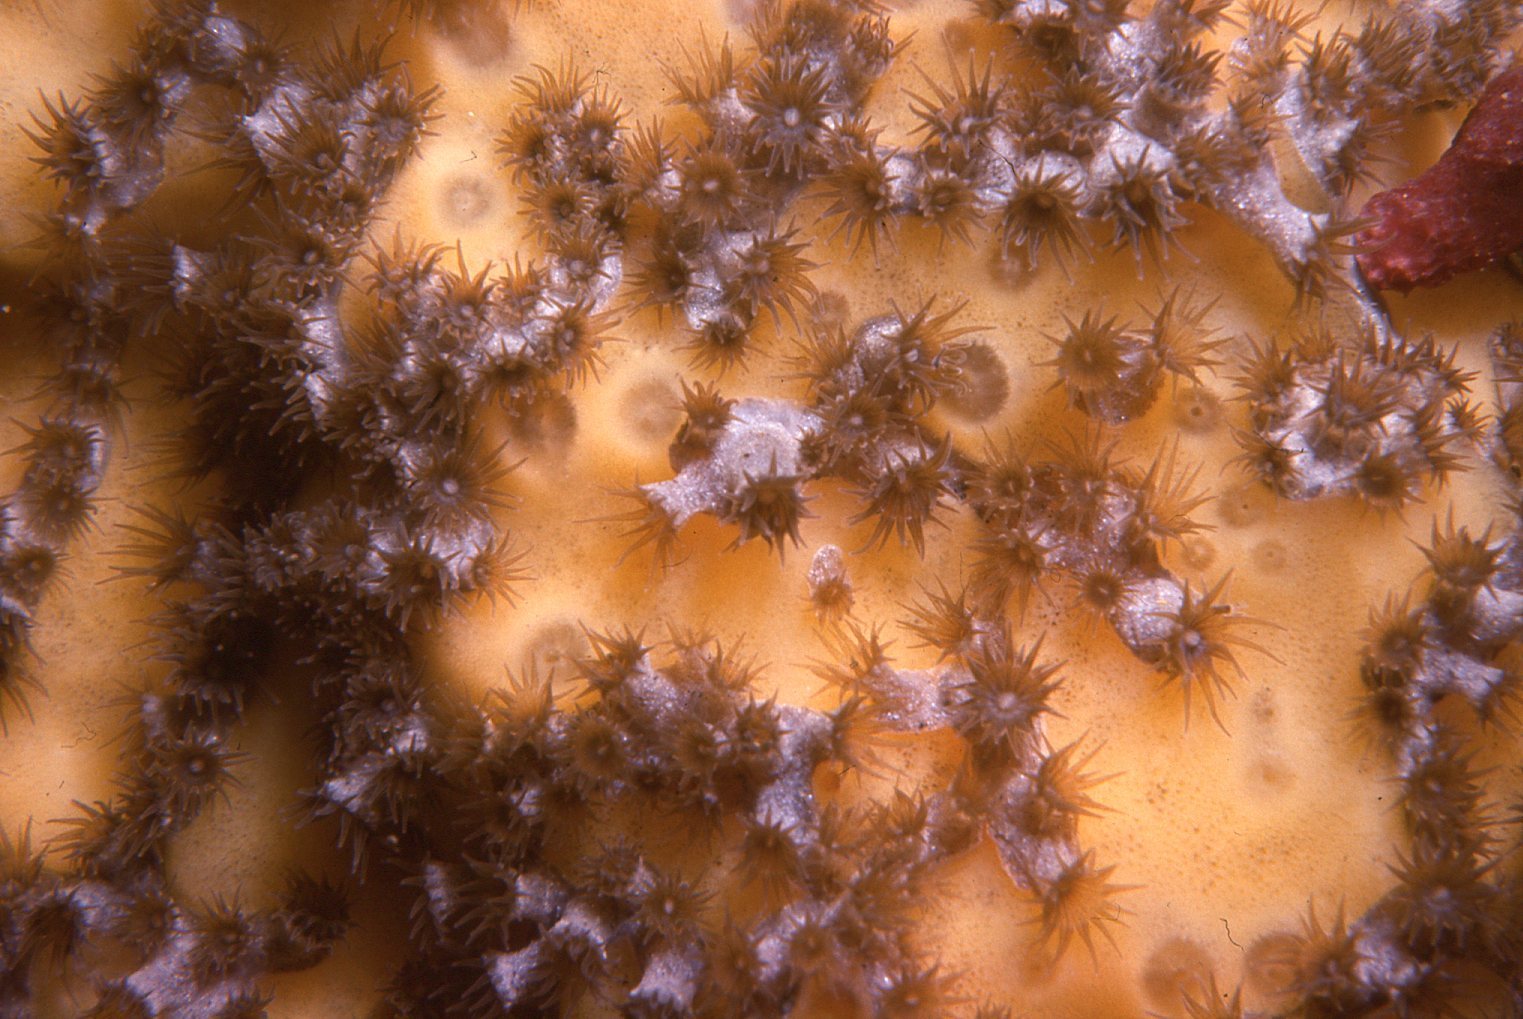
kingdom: Animalia
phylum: Cnidaria
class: Anthozoa
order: Zoantharia
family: Epizoanthidae
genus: Epizoanthus
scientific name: Epizoanthus sabulosus
